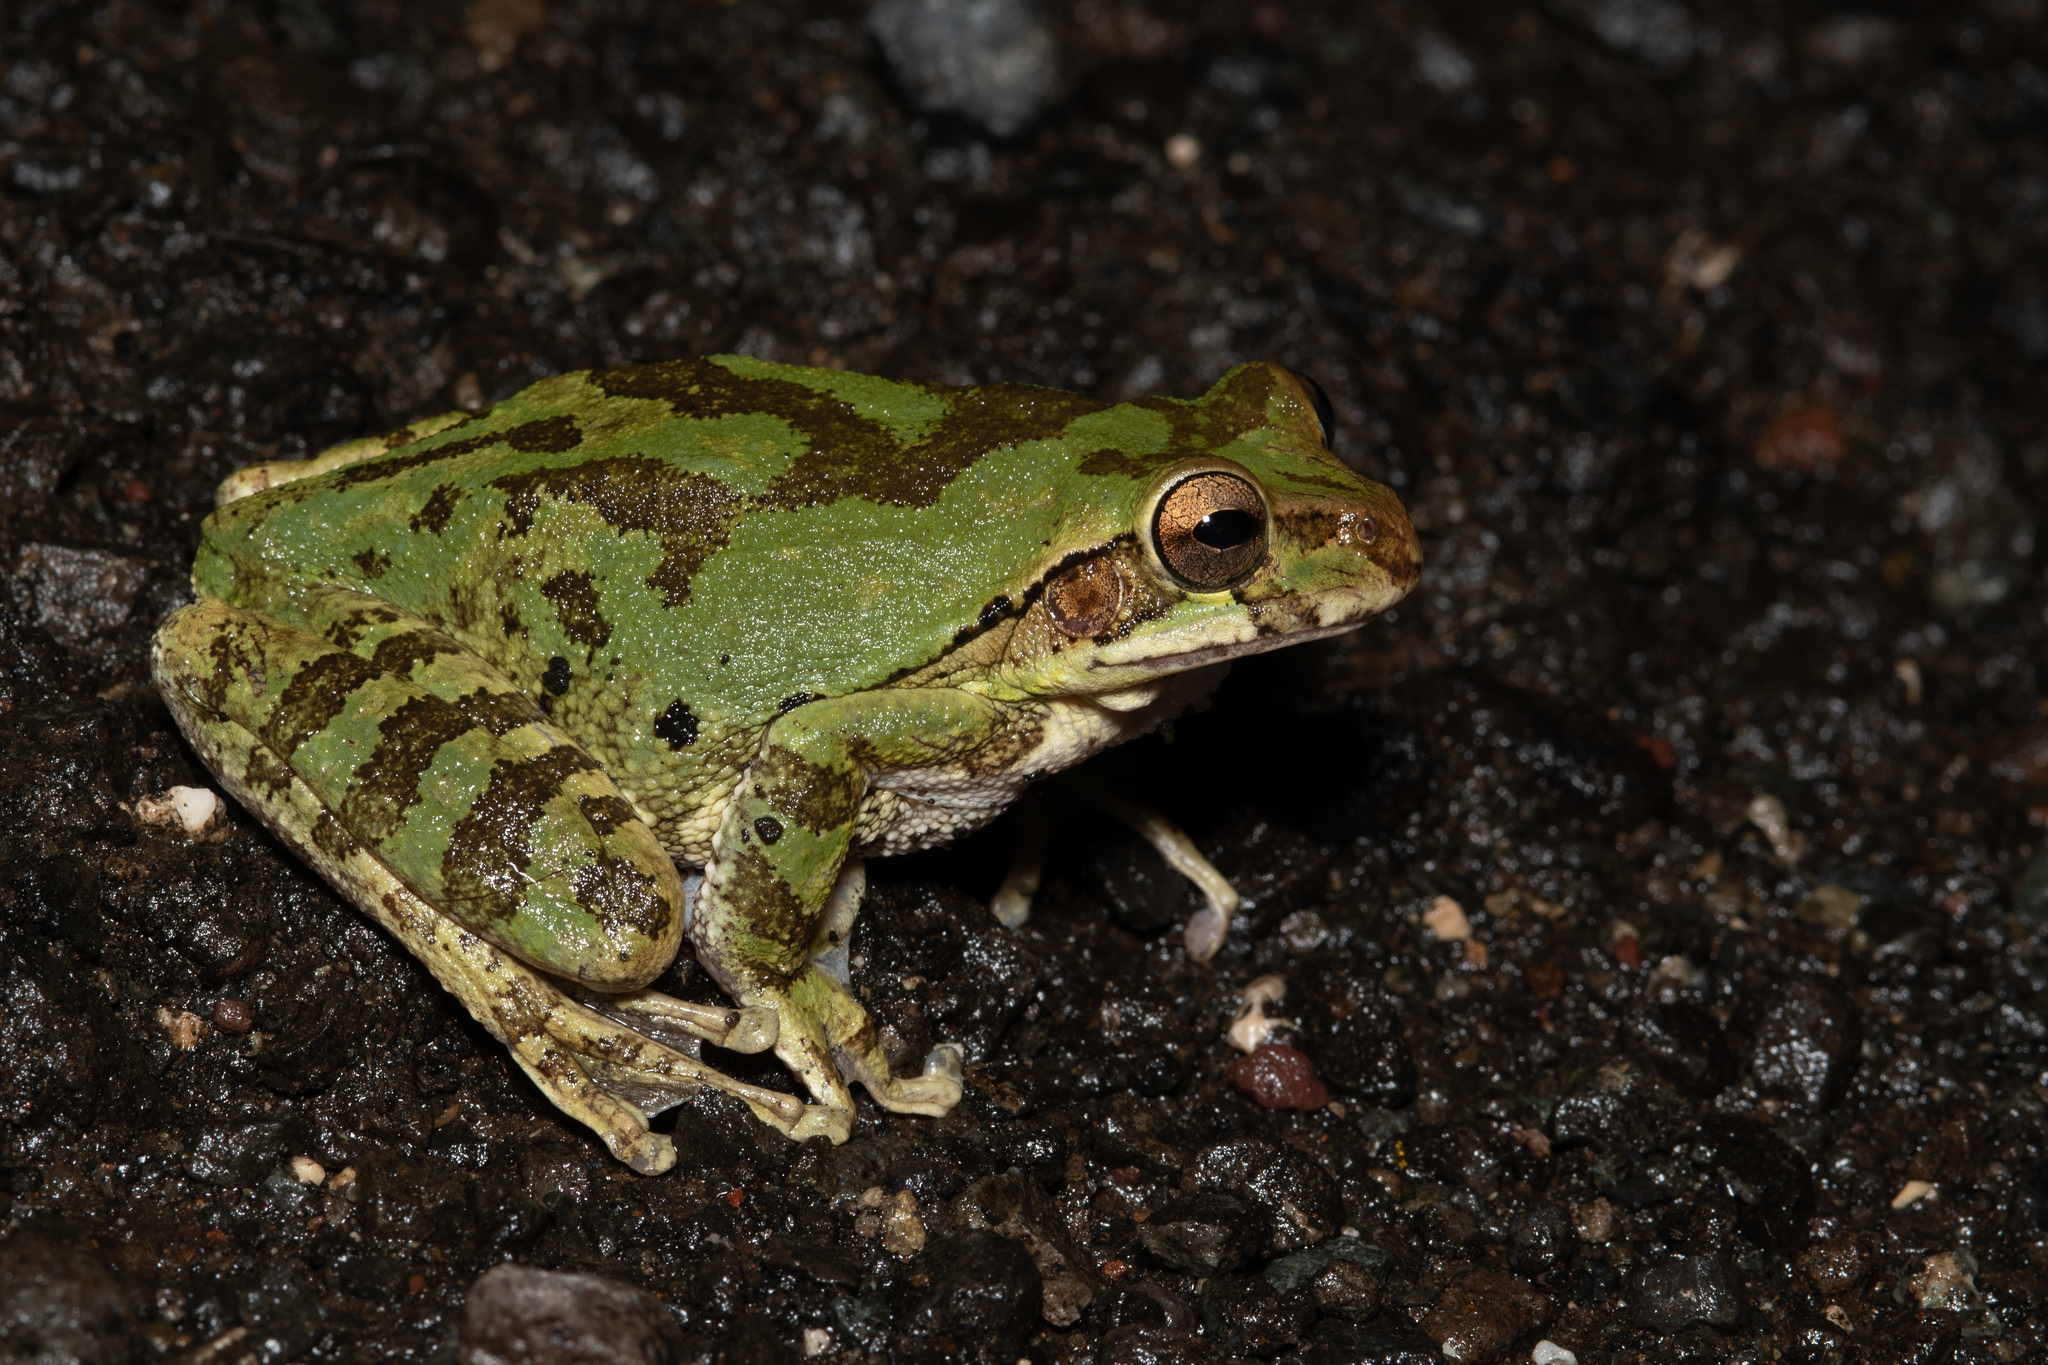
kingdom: Animalia
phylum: Chordata
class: Amphibia
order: Anura
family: Hylidae
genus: Smilisca
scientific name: Smilisca baudinii
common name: Mexican smilisca
